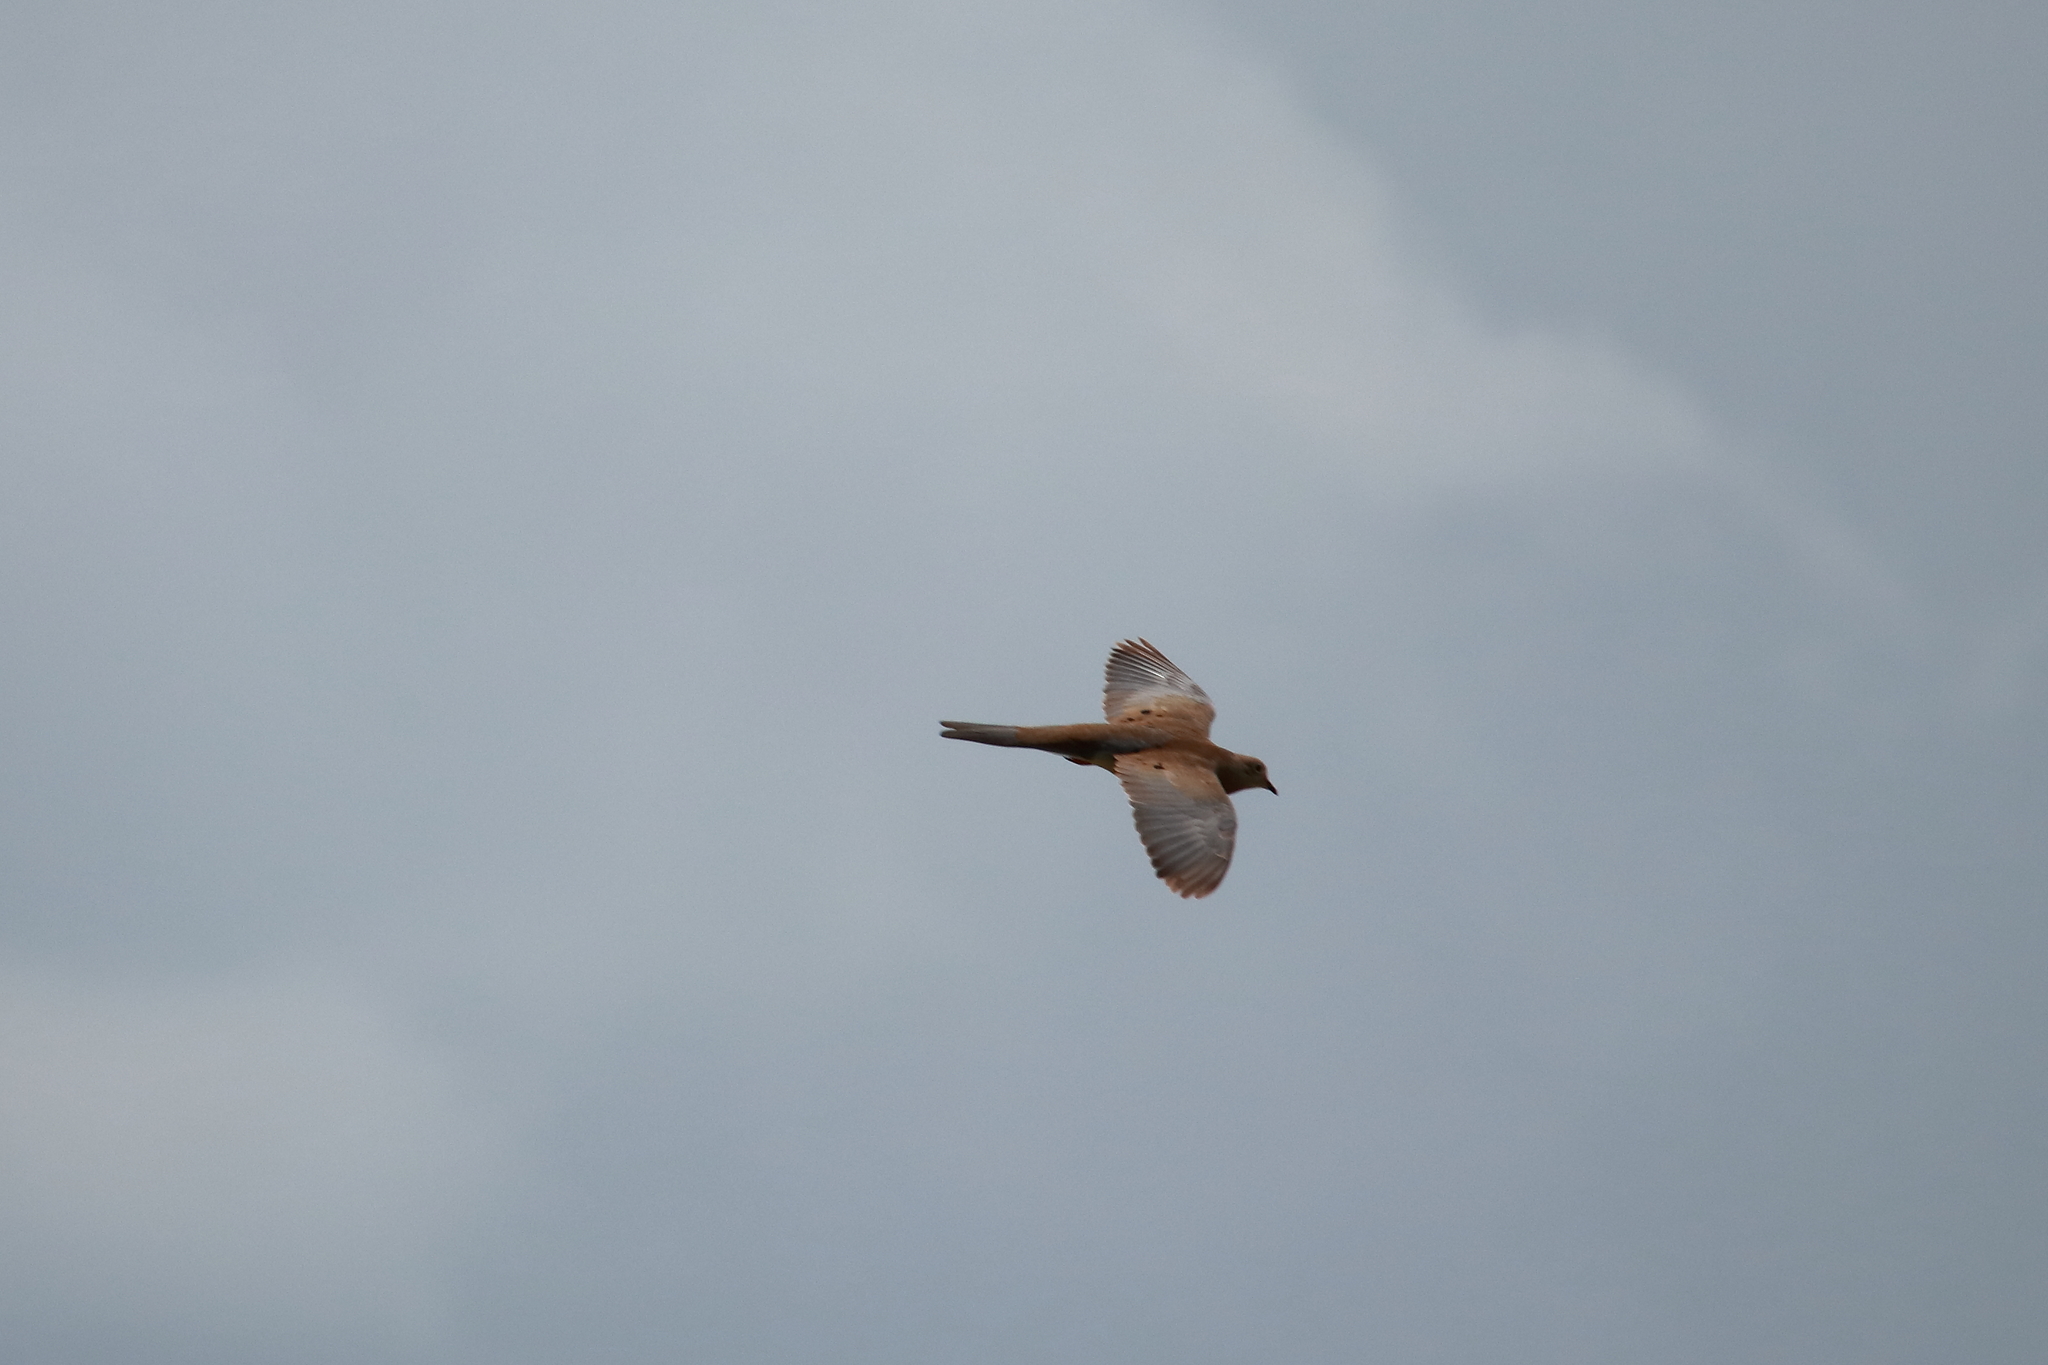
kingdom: Animalia
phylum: Chordata
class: Aves
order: Columbiformes
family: Columbidae
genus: Zenaida
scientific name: Zenaida macroura
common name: Mourning dove
